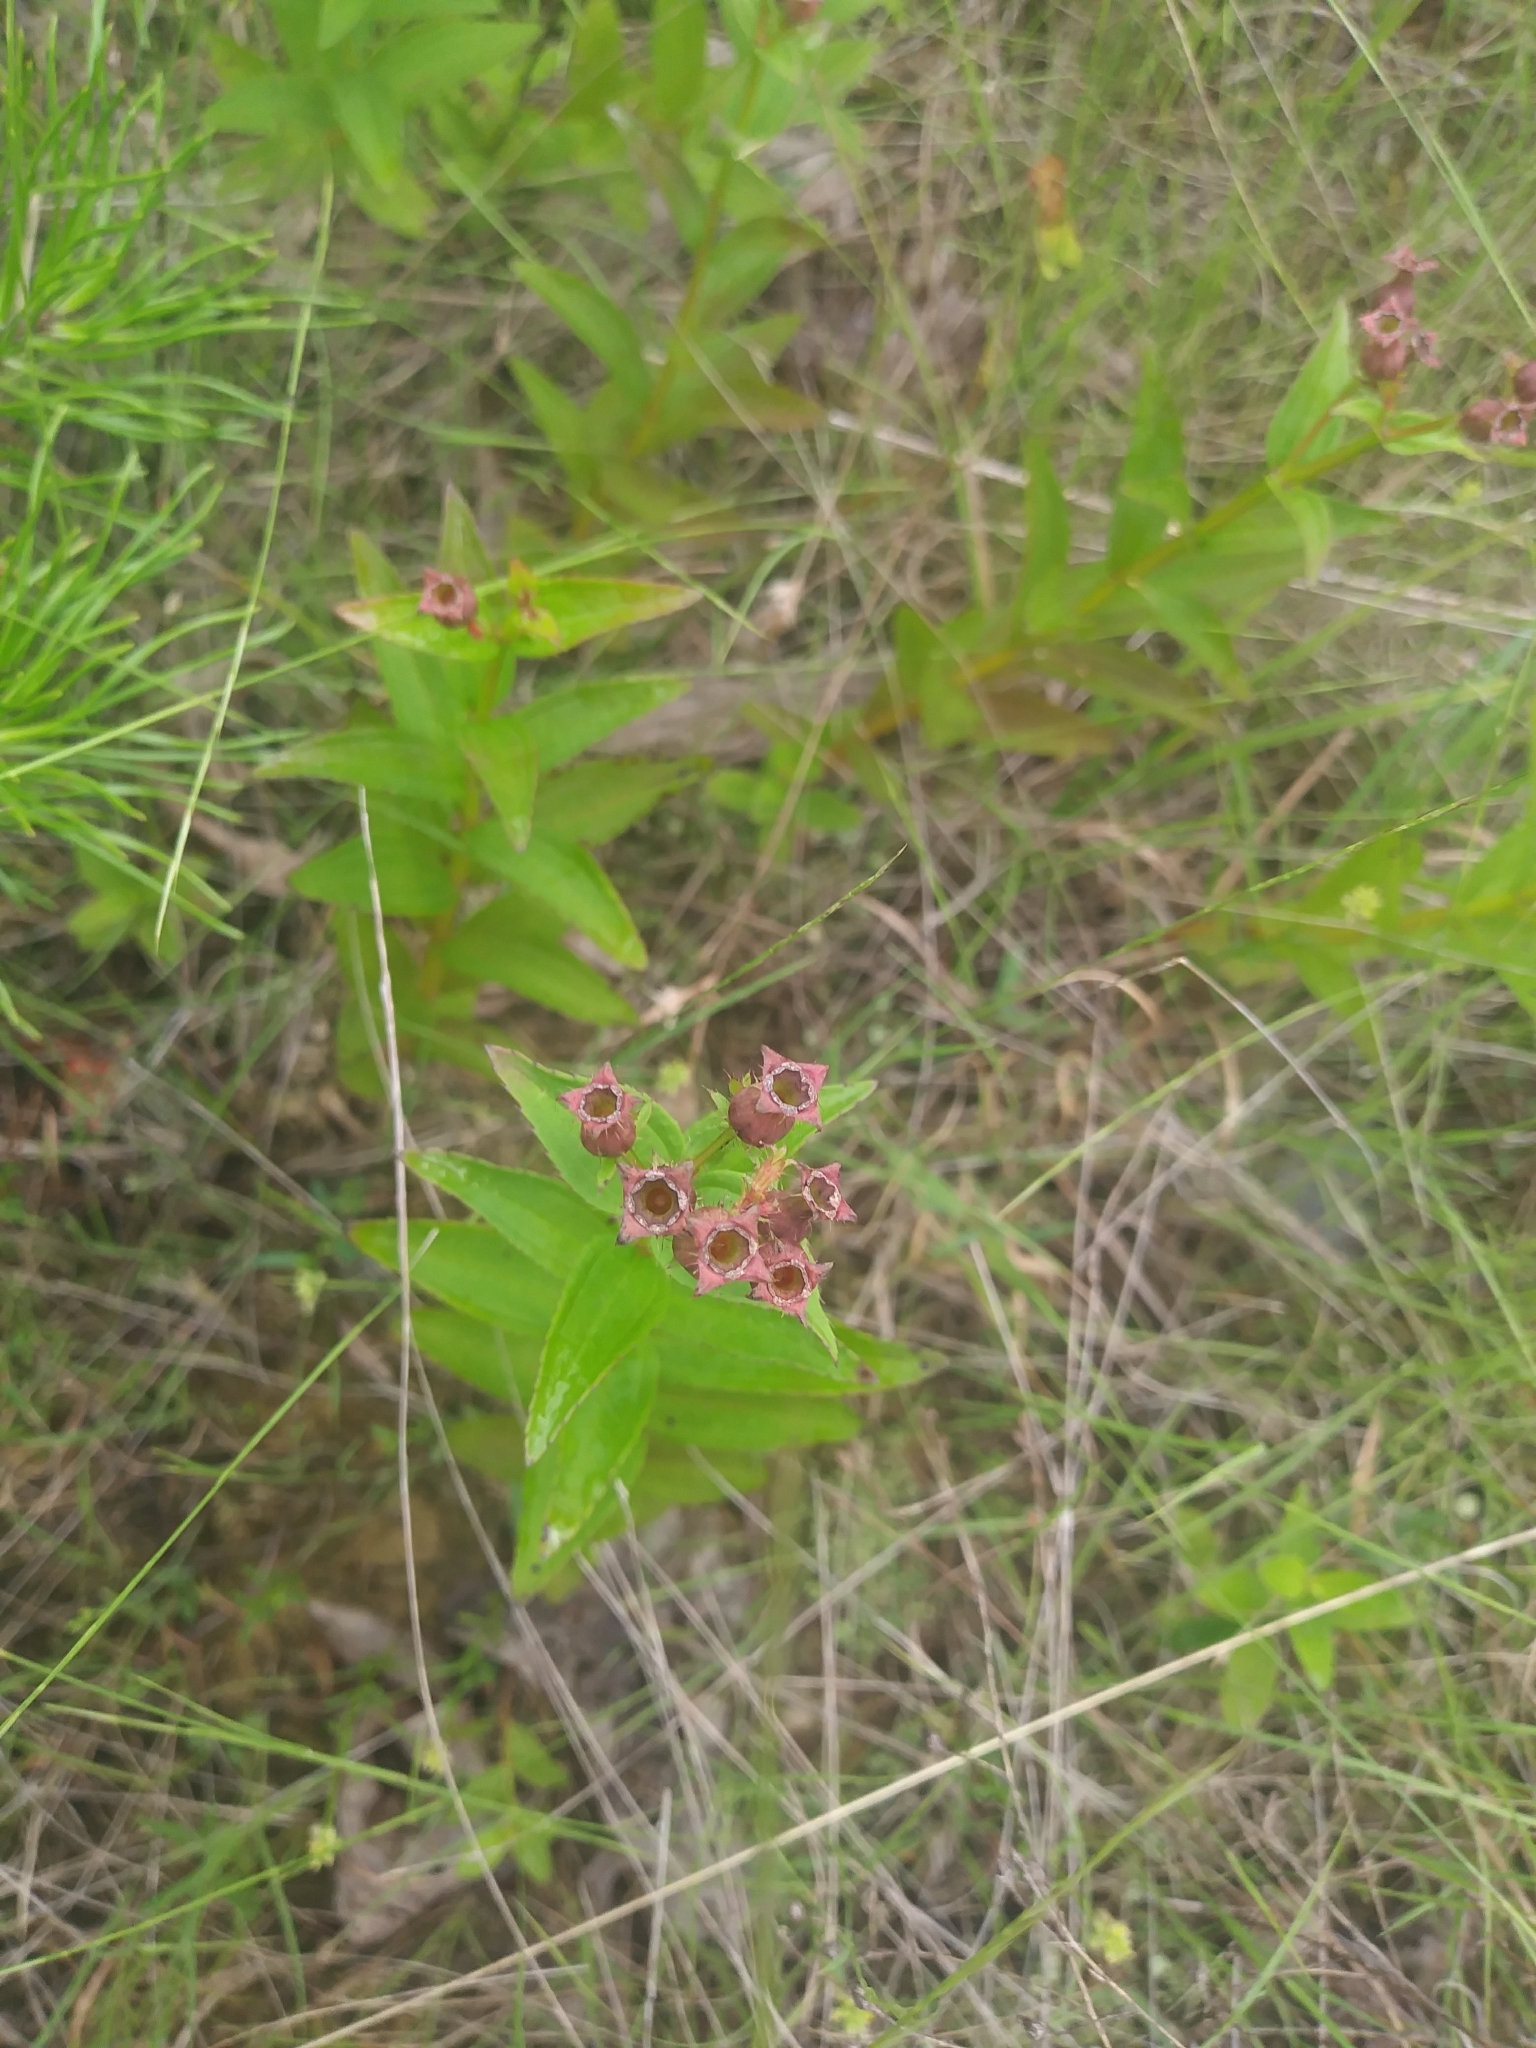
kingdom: Plantae
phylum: Tracheophyta
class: Magnoliopsida
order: Myrtales
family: Melastomataceae
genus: Rhexia
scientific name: Rhexia virginica
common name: Common meadow beauty
